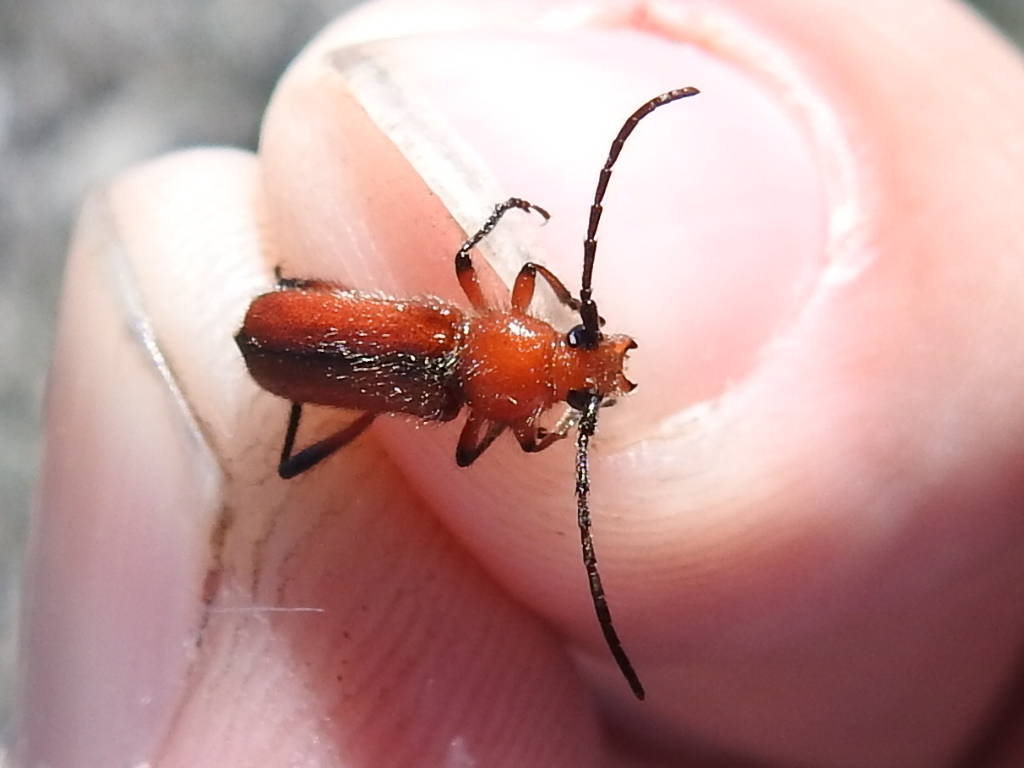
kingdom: Animalia
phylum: Arthropoda
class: Insecta
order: Coleoptera
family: Cerambycidae
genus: Batyle
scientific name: Batyle suturalis
